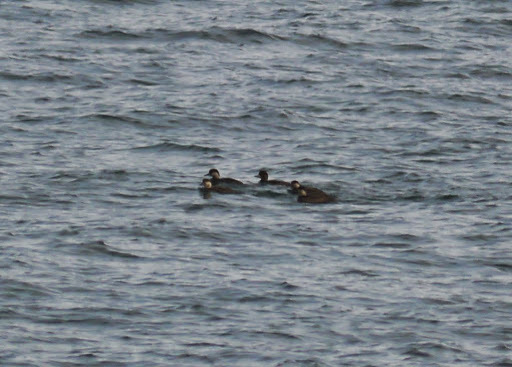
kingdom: Animalia
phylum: Chordata
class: Aves
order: Anseriformes
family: Anatidae
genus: Melanitta
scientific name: Melanitta americana
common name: Black scoter
